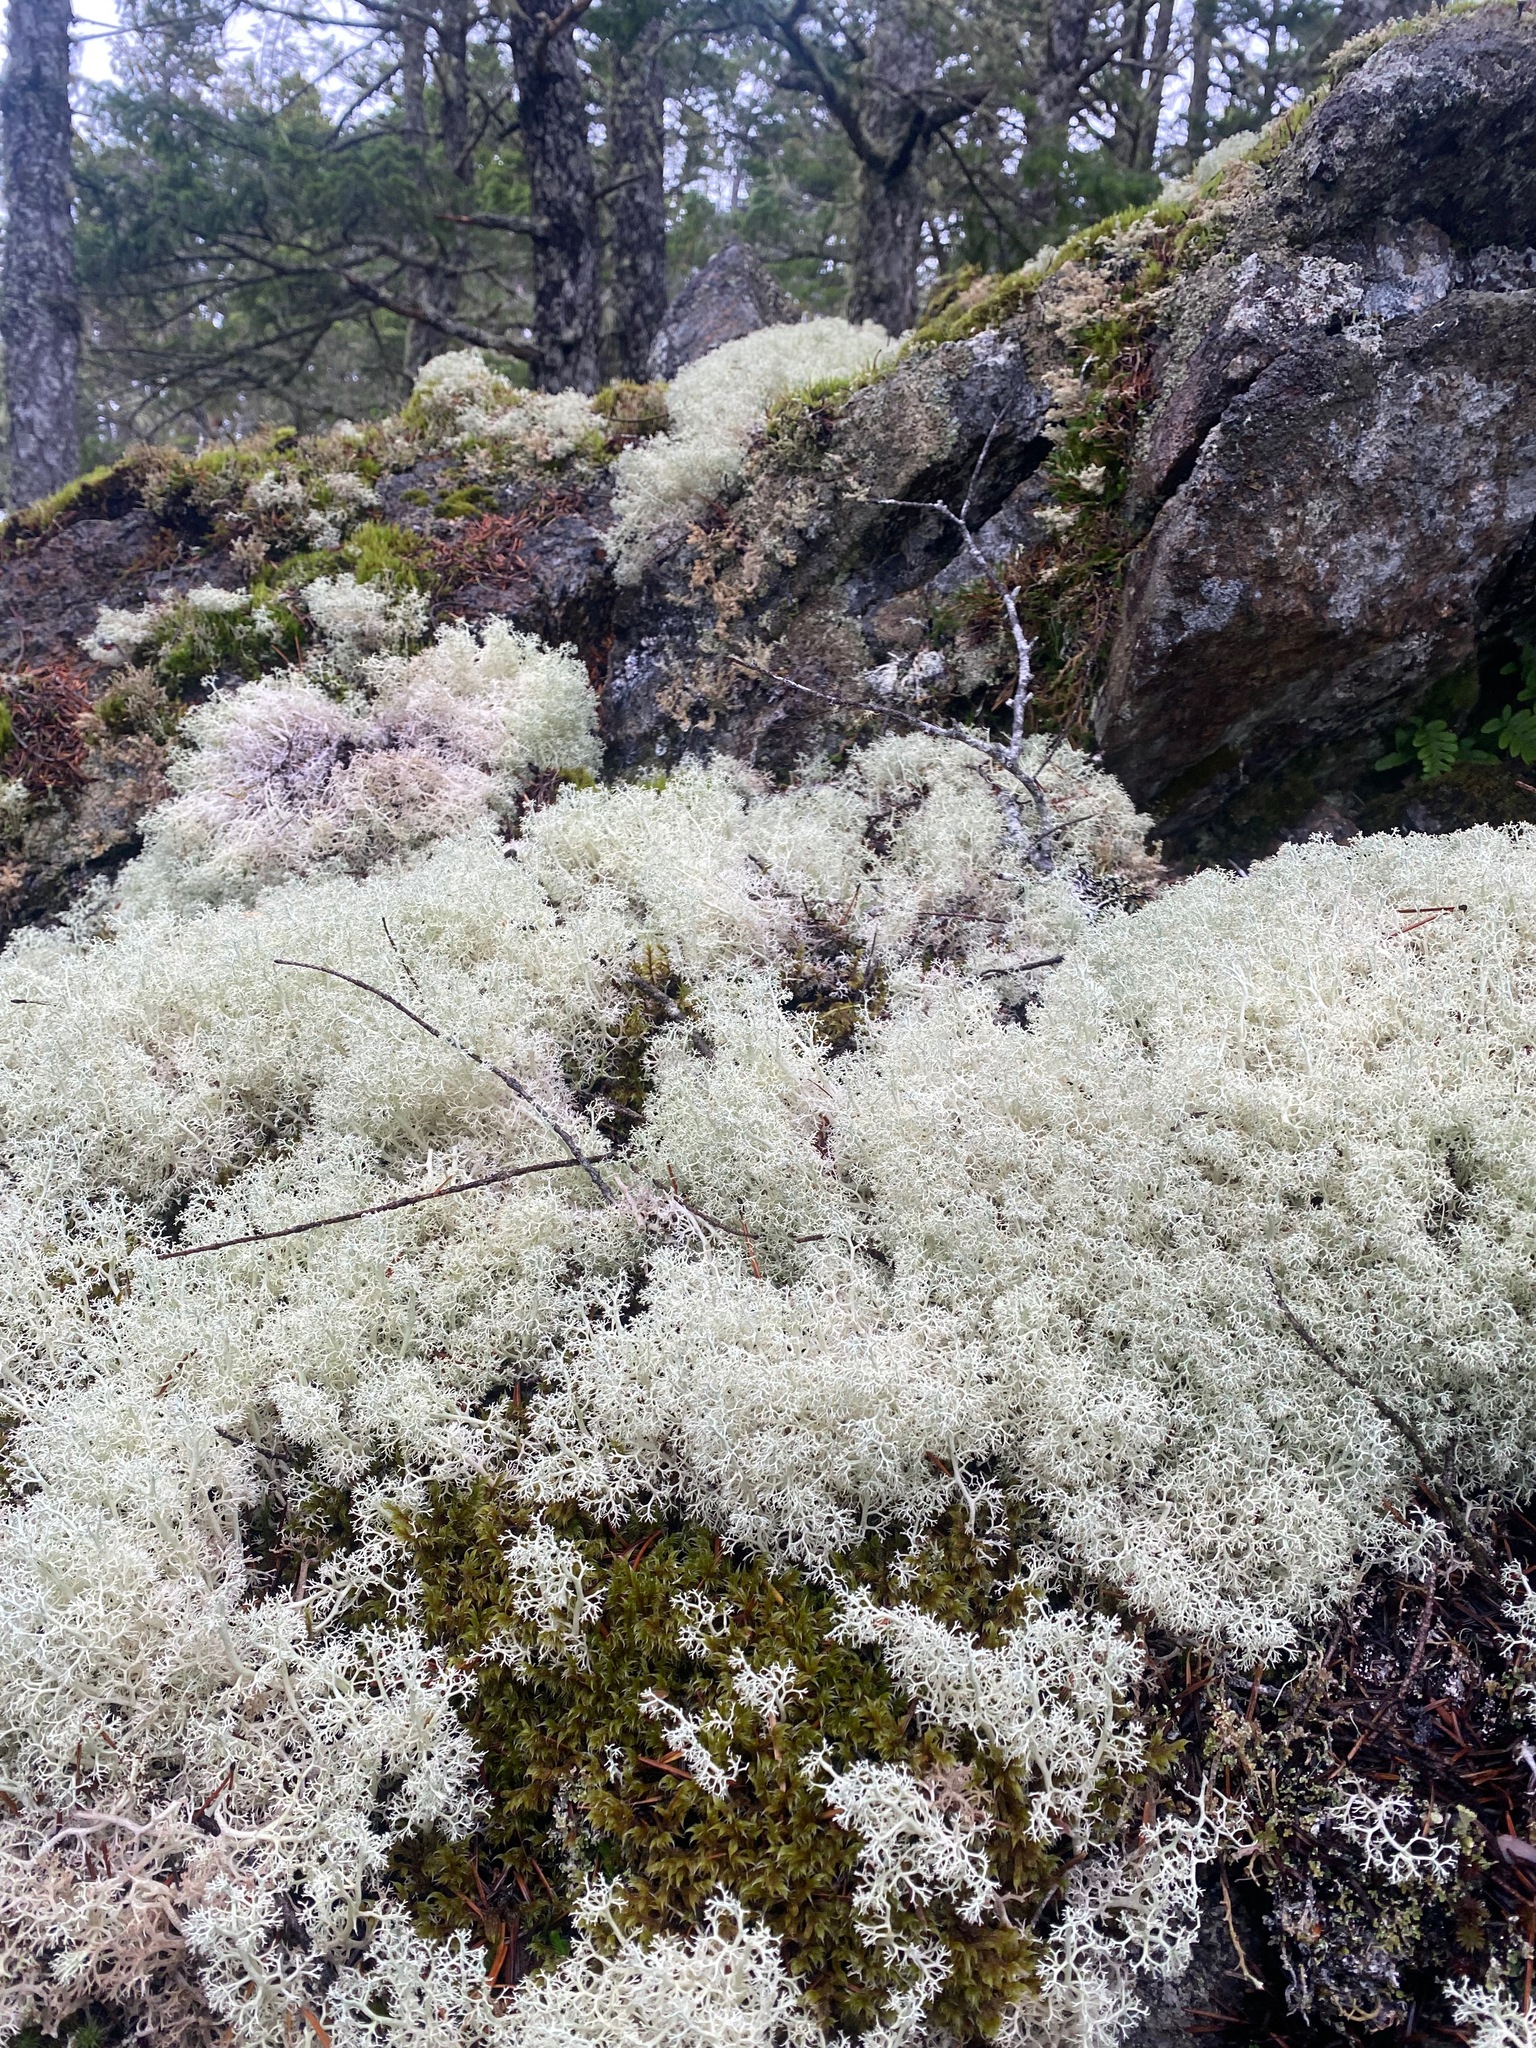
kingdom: Fungi
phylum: Ascomycota
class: Lecanoromycetes
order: Lecanorales
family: Cladoniaceae
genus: Cladonia
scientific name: Cladonia portentosa
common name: Reindeer lichen
